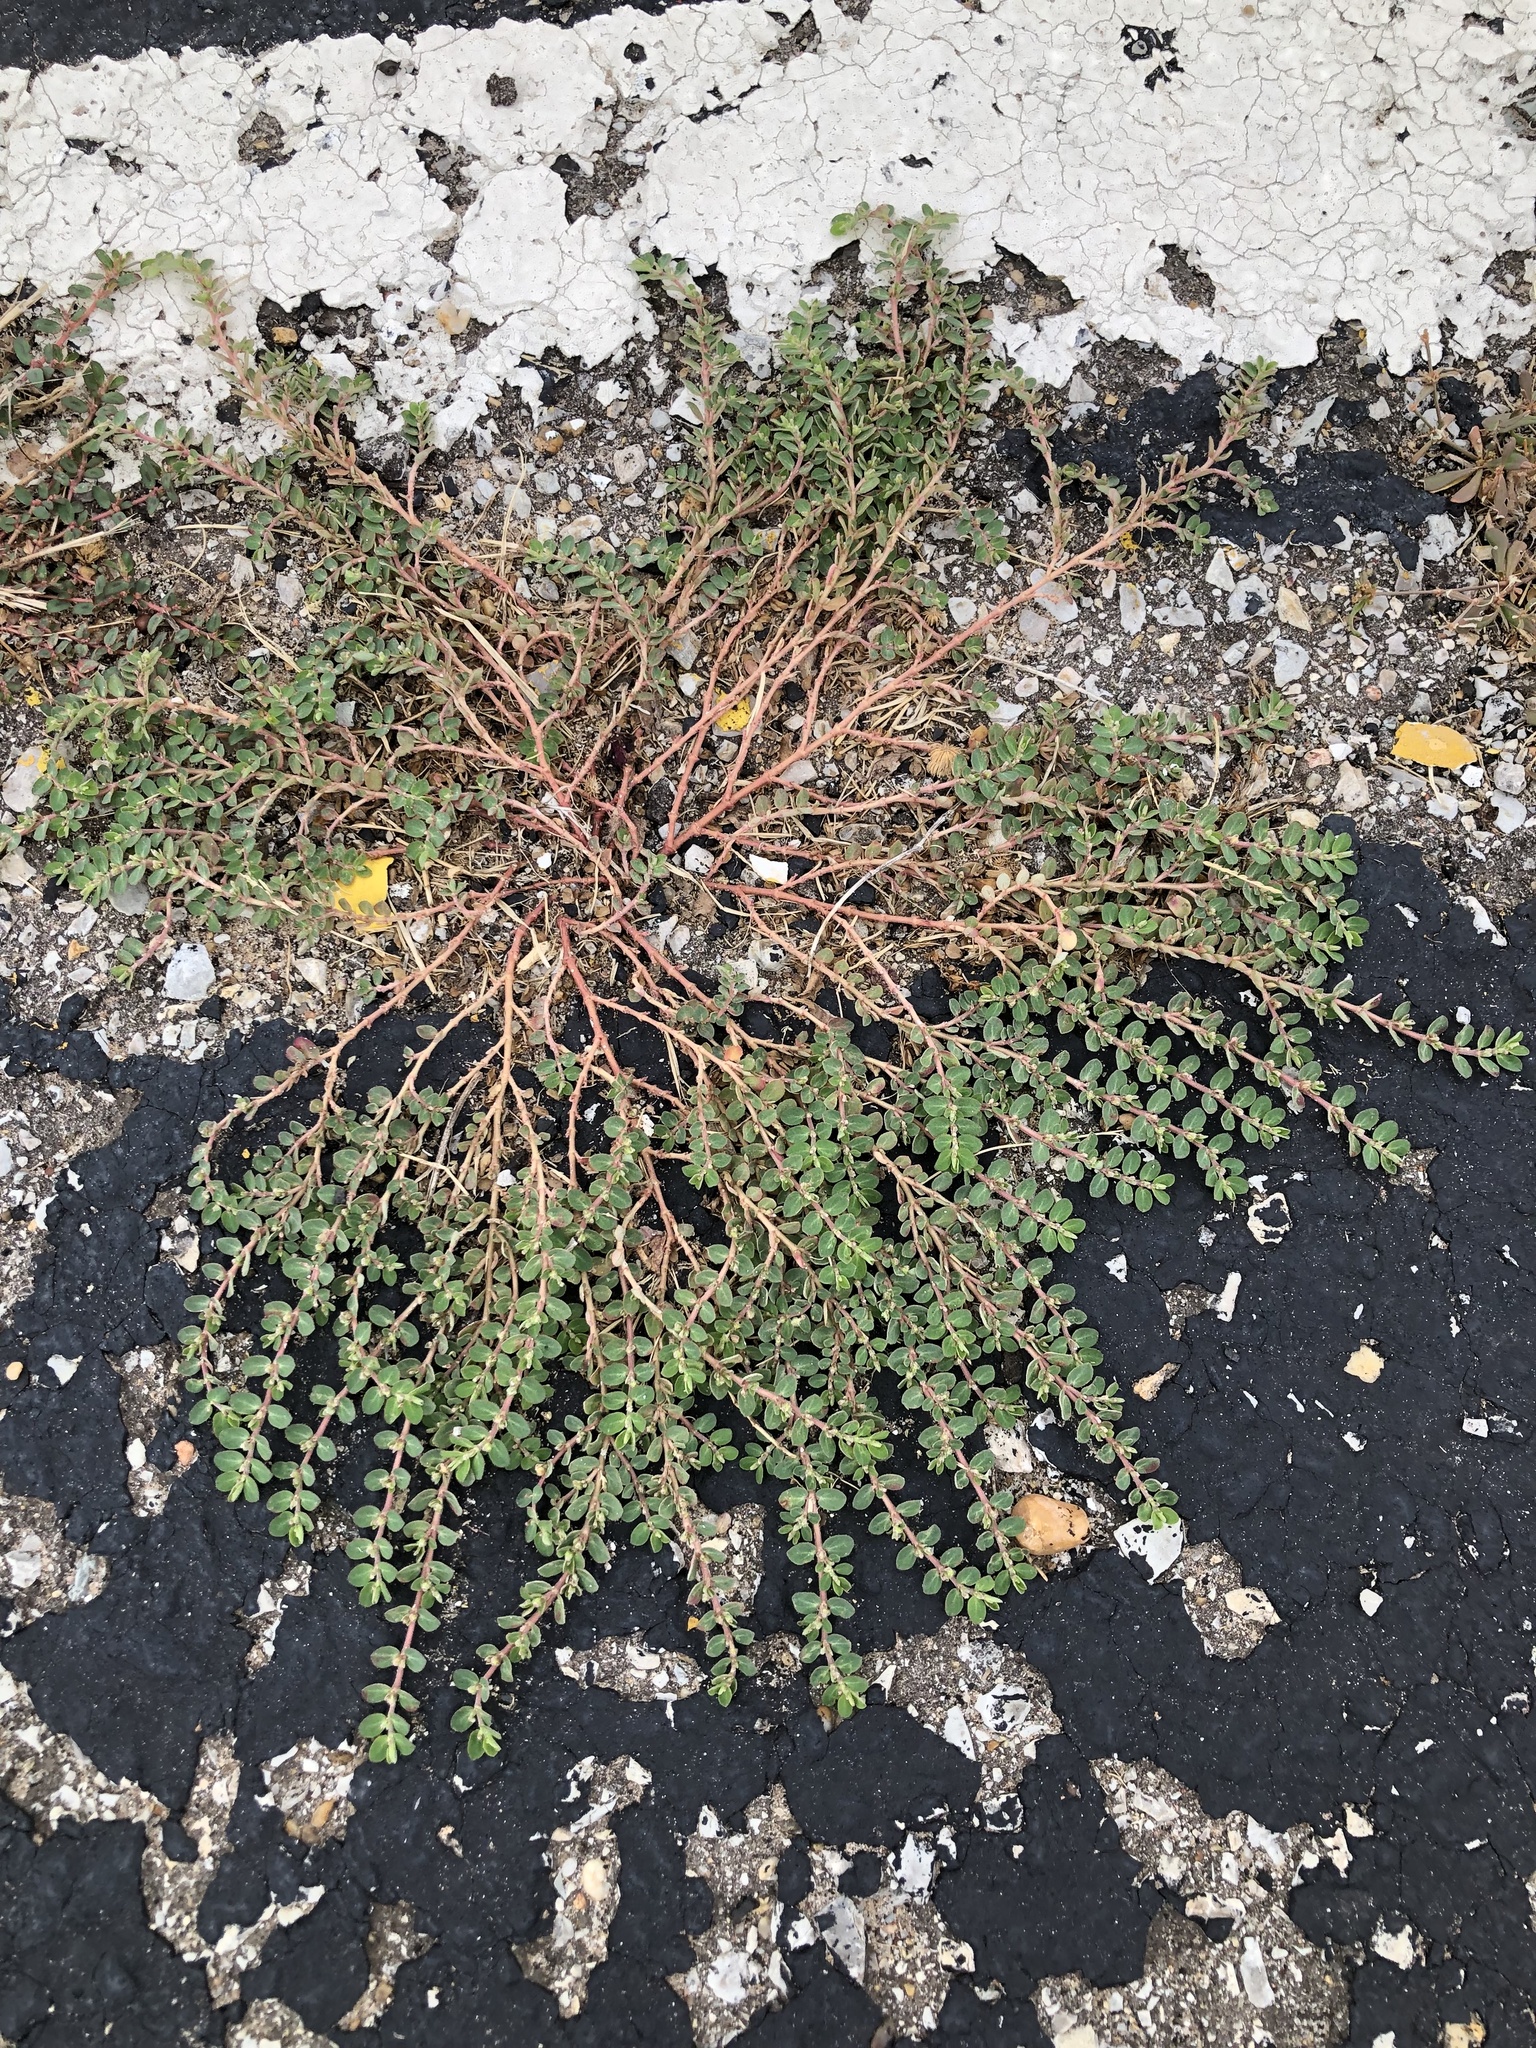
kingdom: Plantae
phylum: Tracheophyta
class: Magnoliopsida
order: Malpighiales
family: Euphorbiaceae
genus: Euphorbia
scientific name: Euphorbia prostrata
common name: Prostrate sandmat
